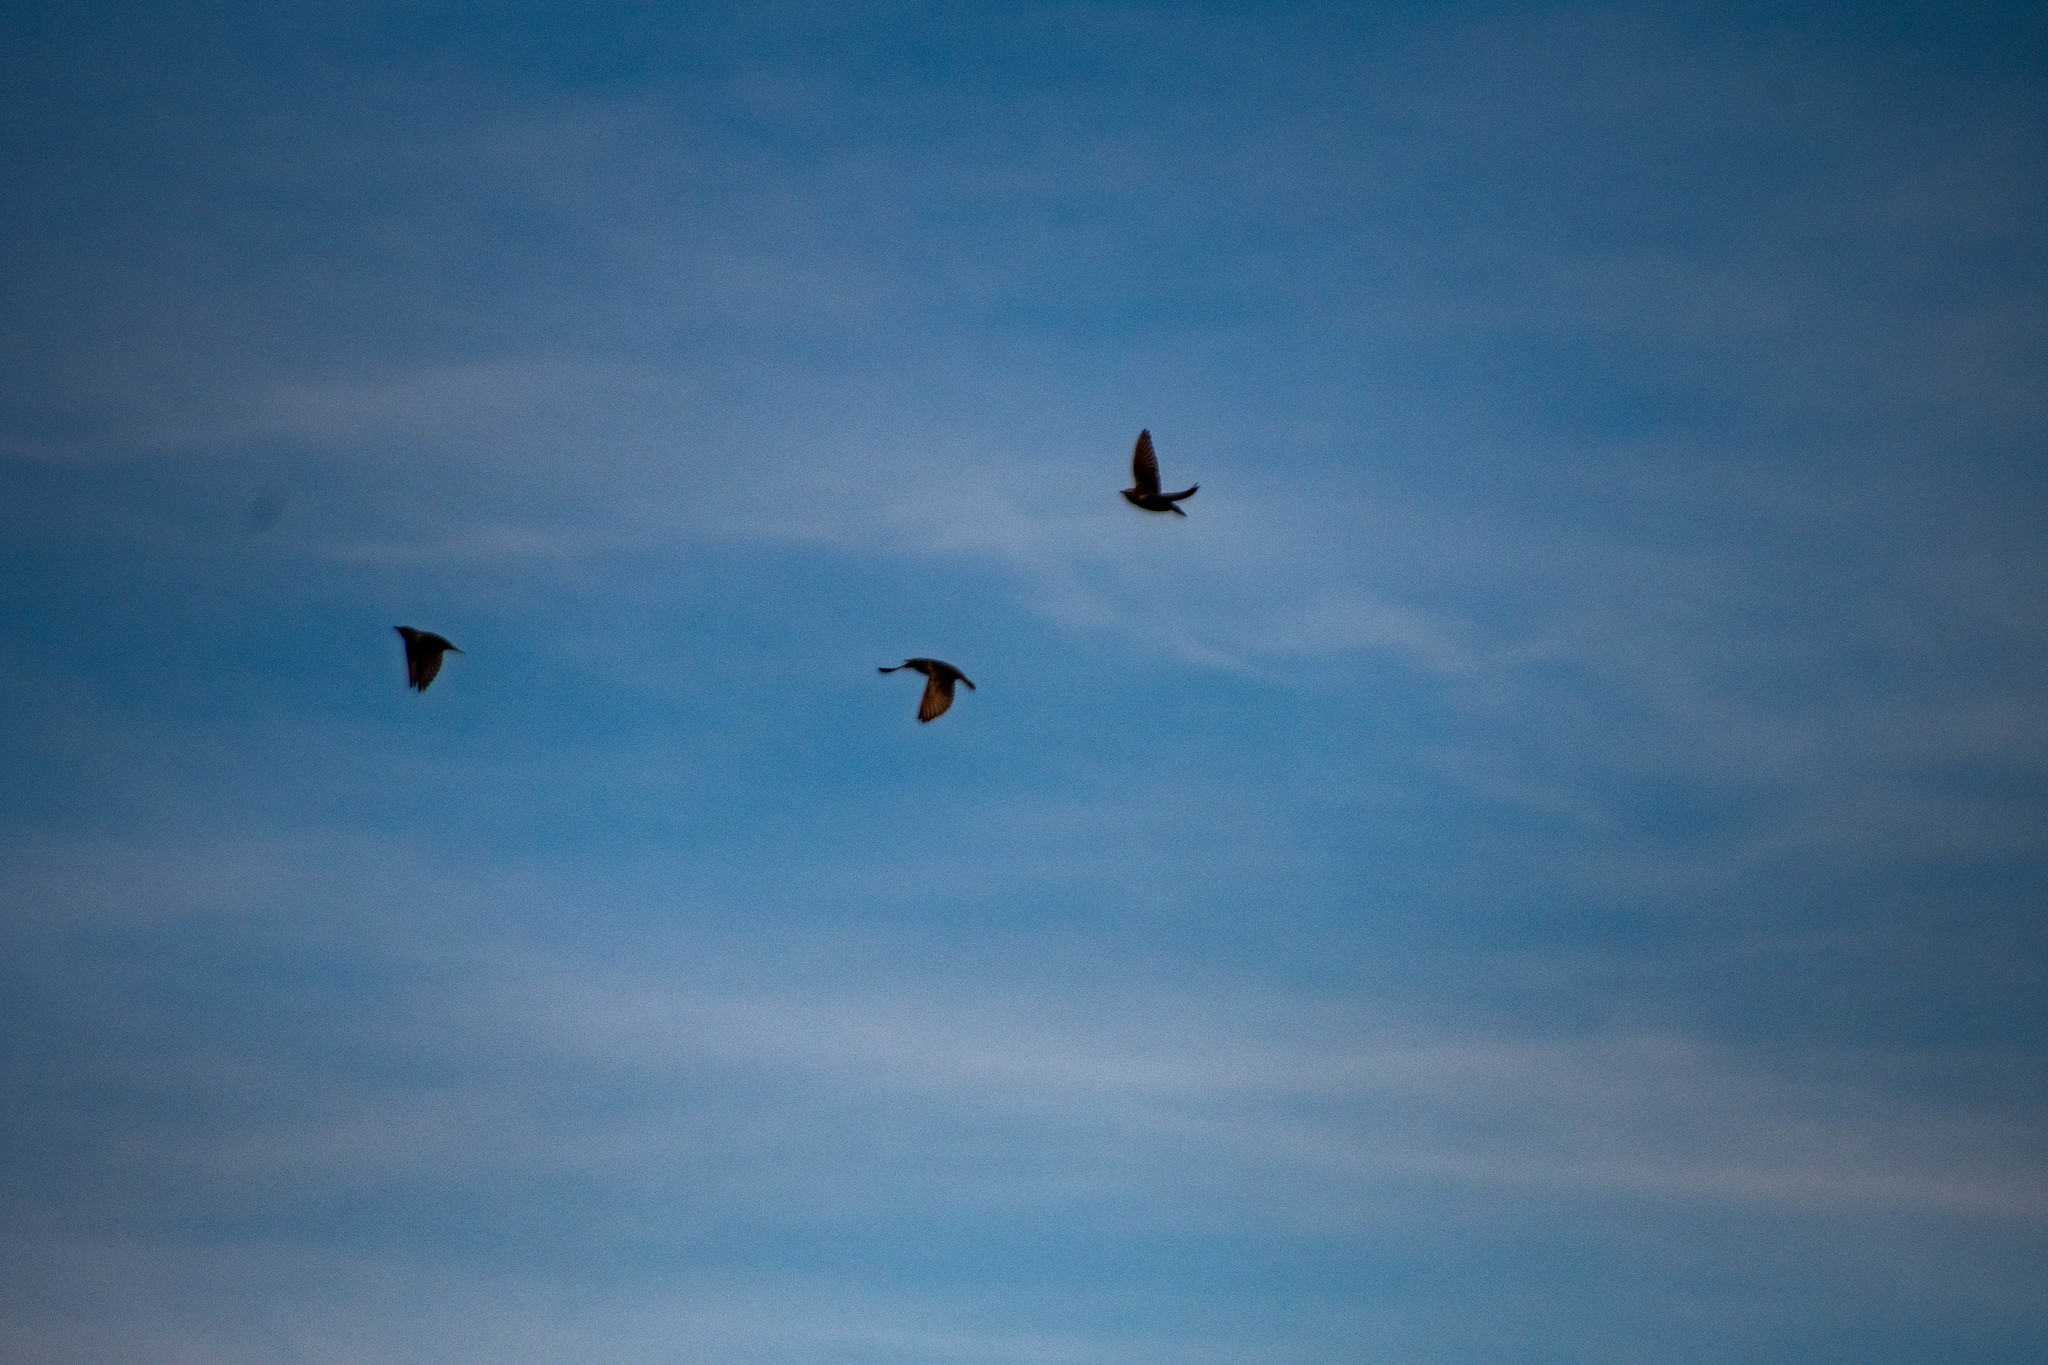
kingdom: Animalia
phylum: Chordata
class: Aves
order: Columbiformes
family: Columbidae
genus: Columba
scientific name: Columba livia
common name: Rock pigeon
